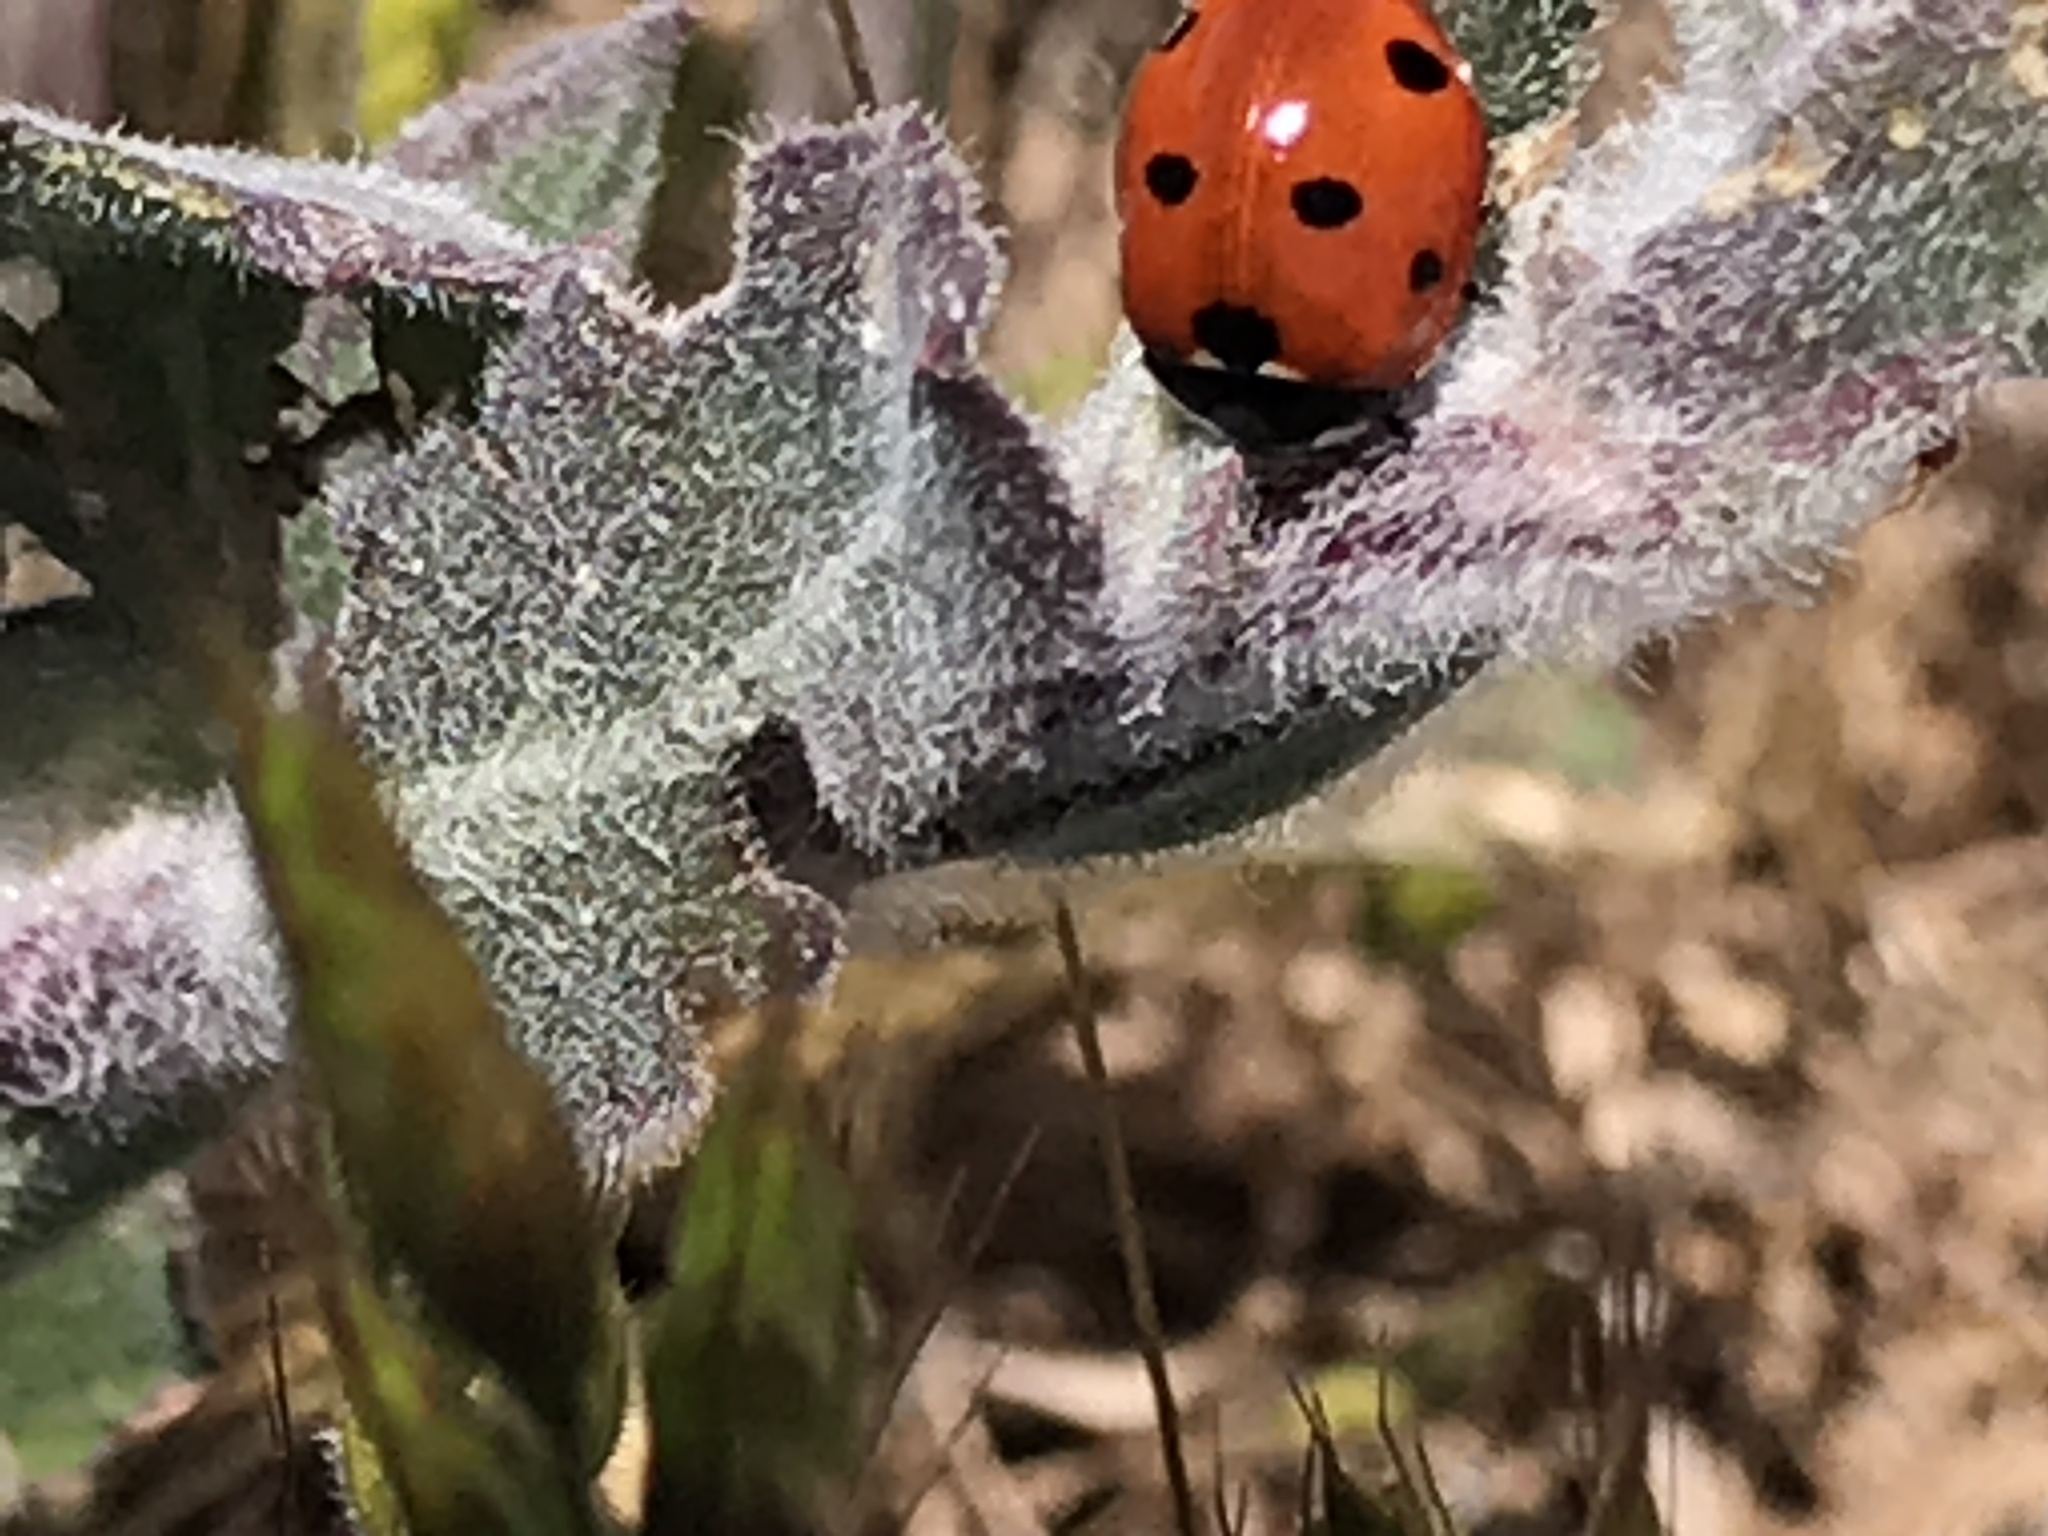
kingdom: Animalia
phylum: Arthropoda
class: Insecta
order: Coleoptera
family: Coccinellidae
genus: Coccinella
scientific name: Coccinella septempunctata
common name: Sevenspotted lady beetle
